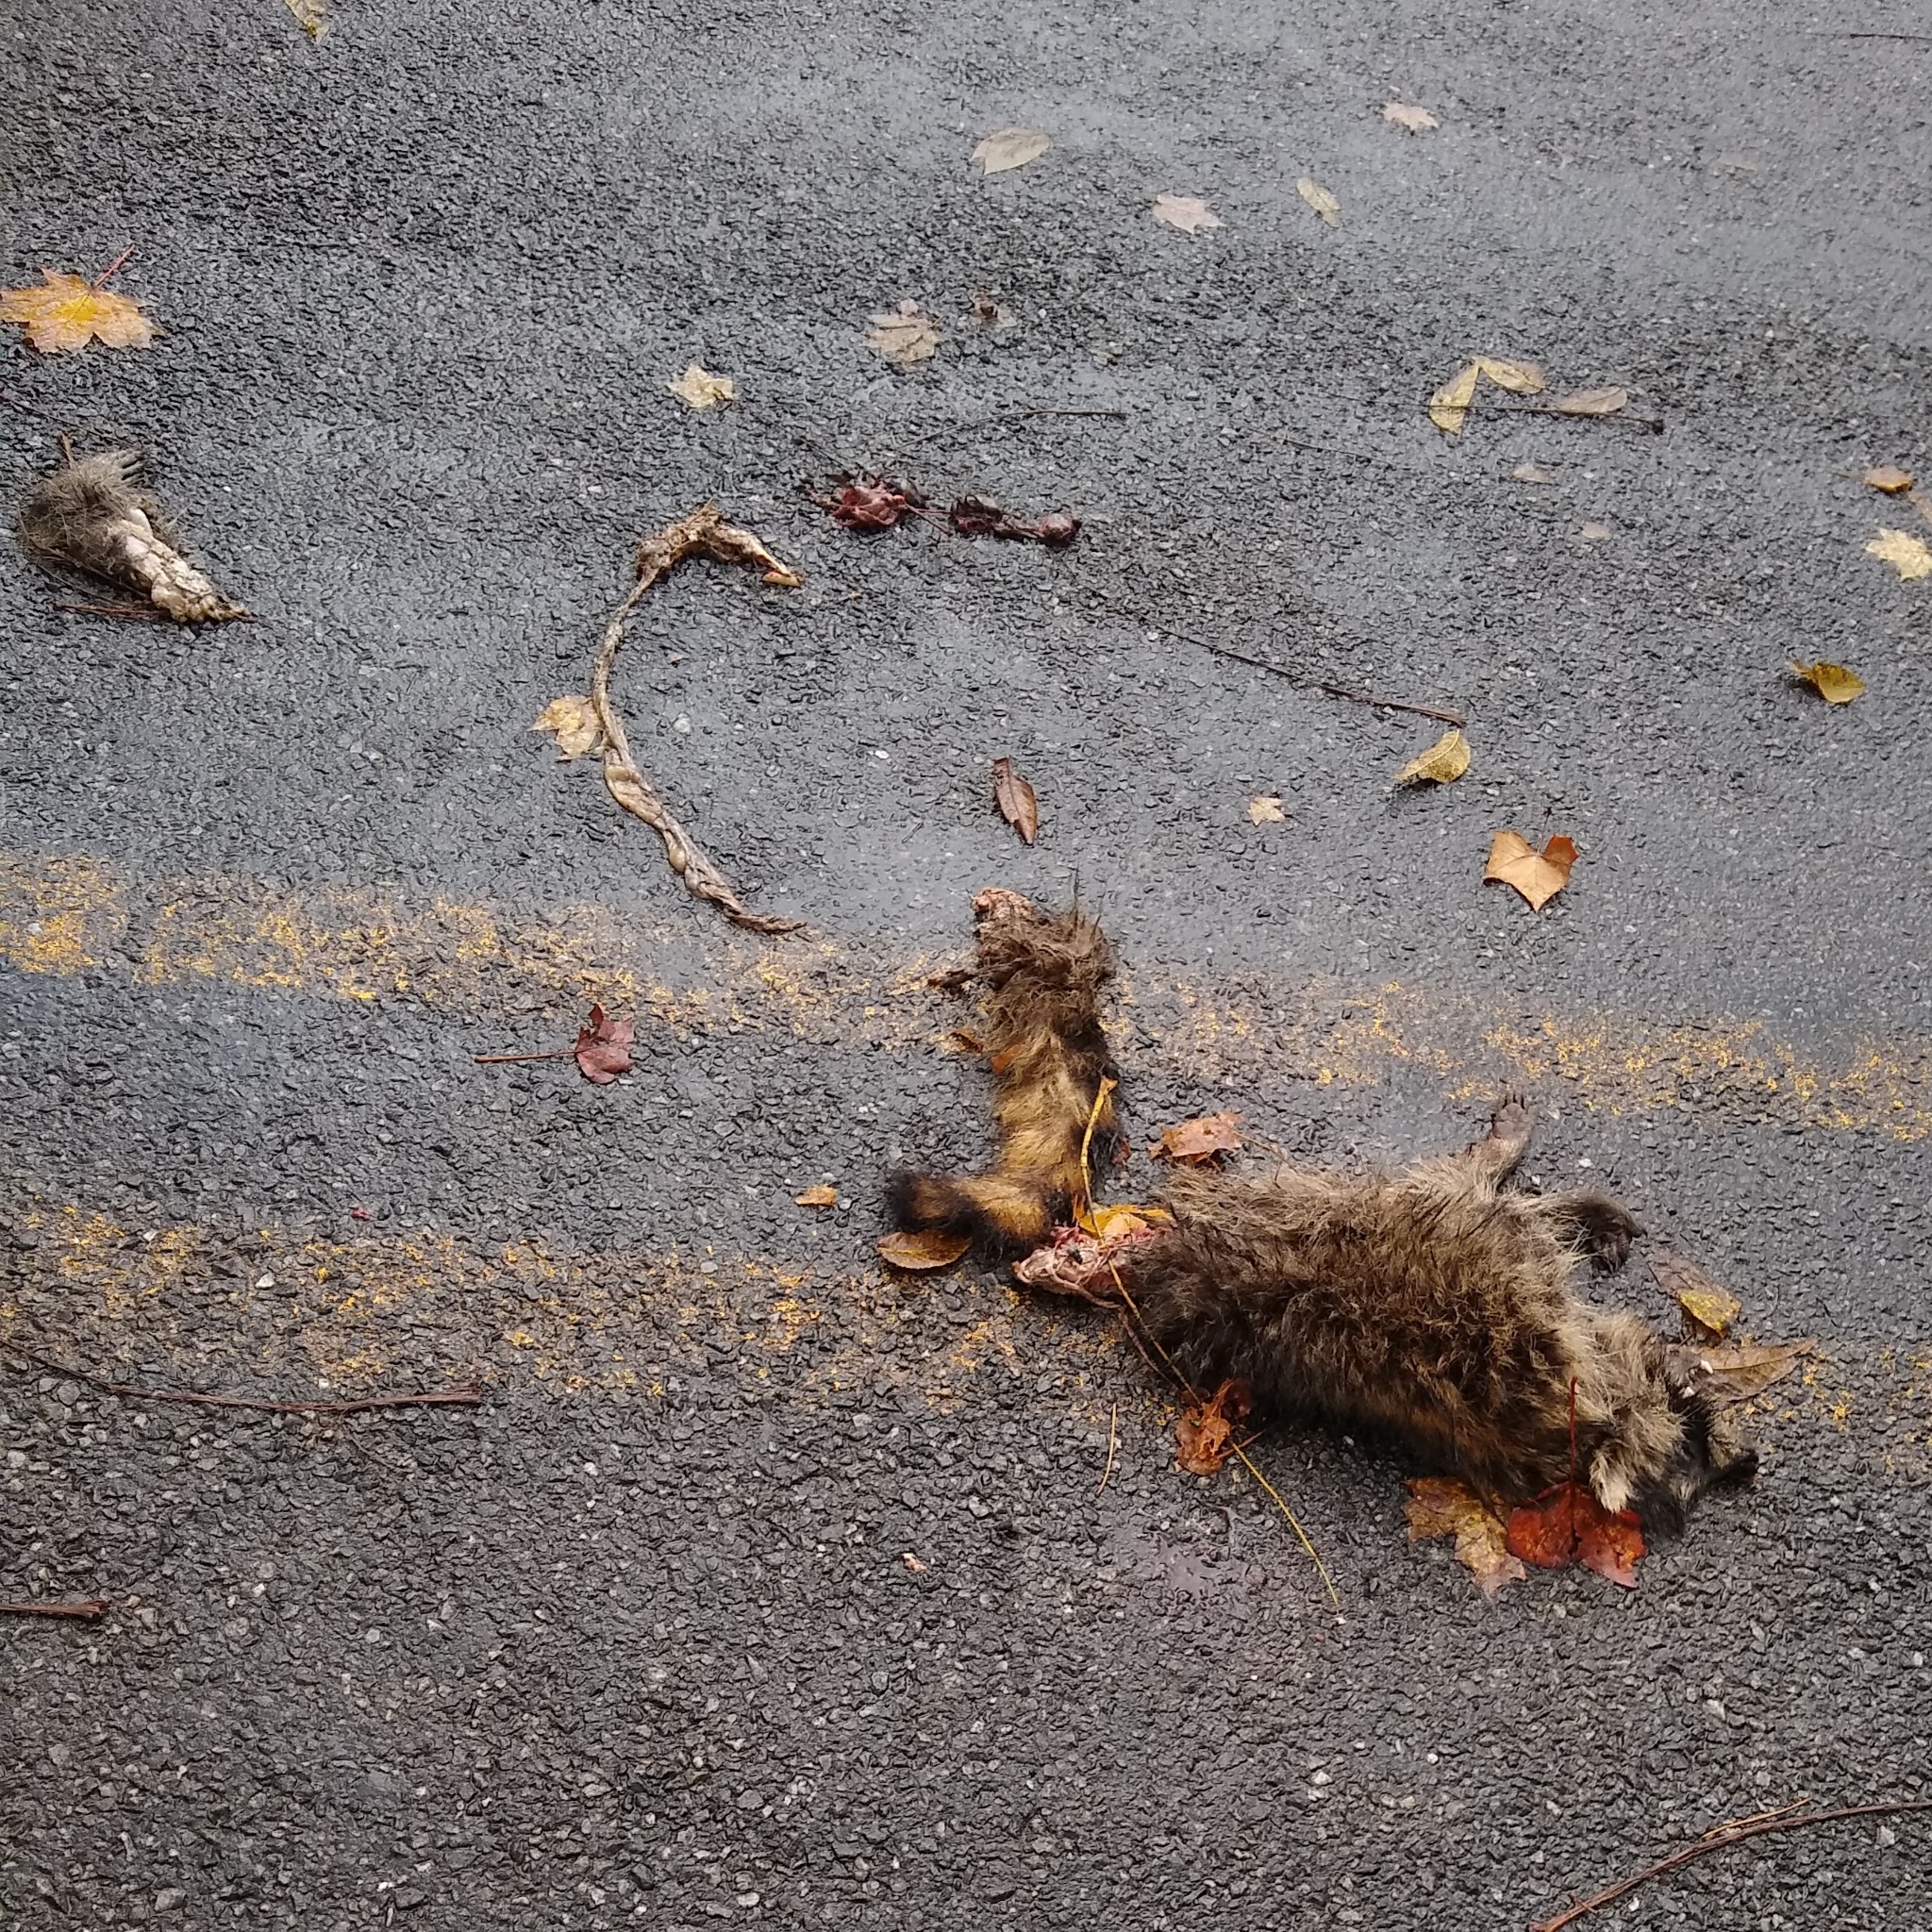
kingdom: Animalia
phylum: Chordata
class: Mammalia
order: Carnivora
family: Procyonidae
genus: Procyon
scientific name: Procyon lotor
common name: Raccoon
